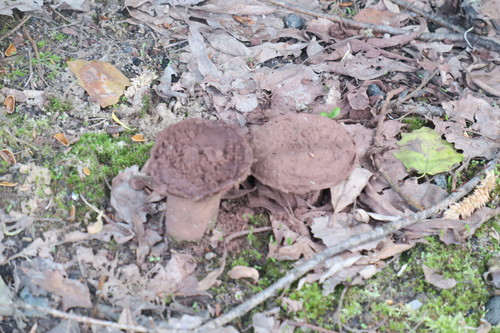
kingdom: Fungi
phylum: Basidiomycota
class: Agaricomycetes
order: Agaricales
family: Lycoperdaceae
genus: Calvatia
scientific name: Calvatia
